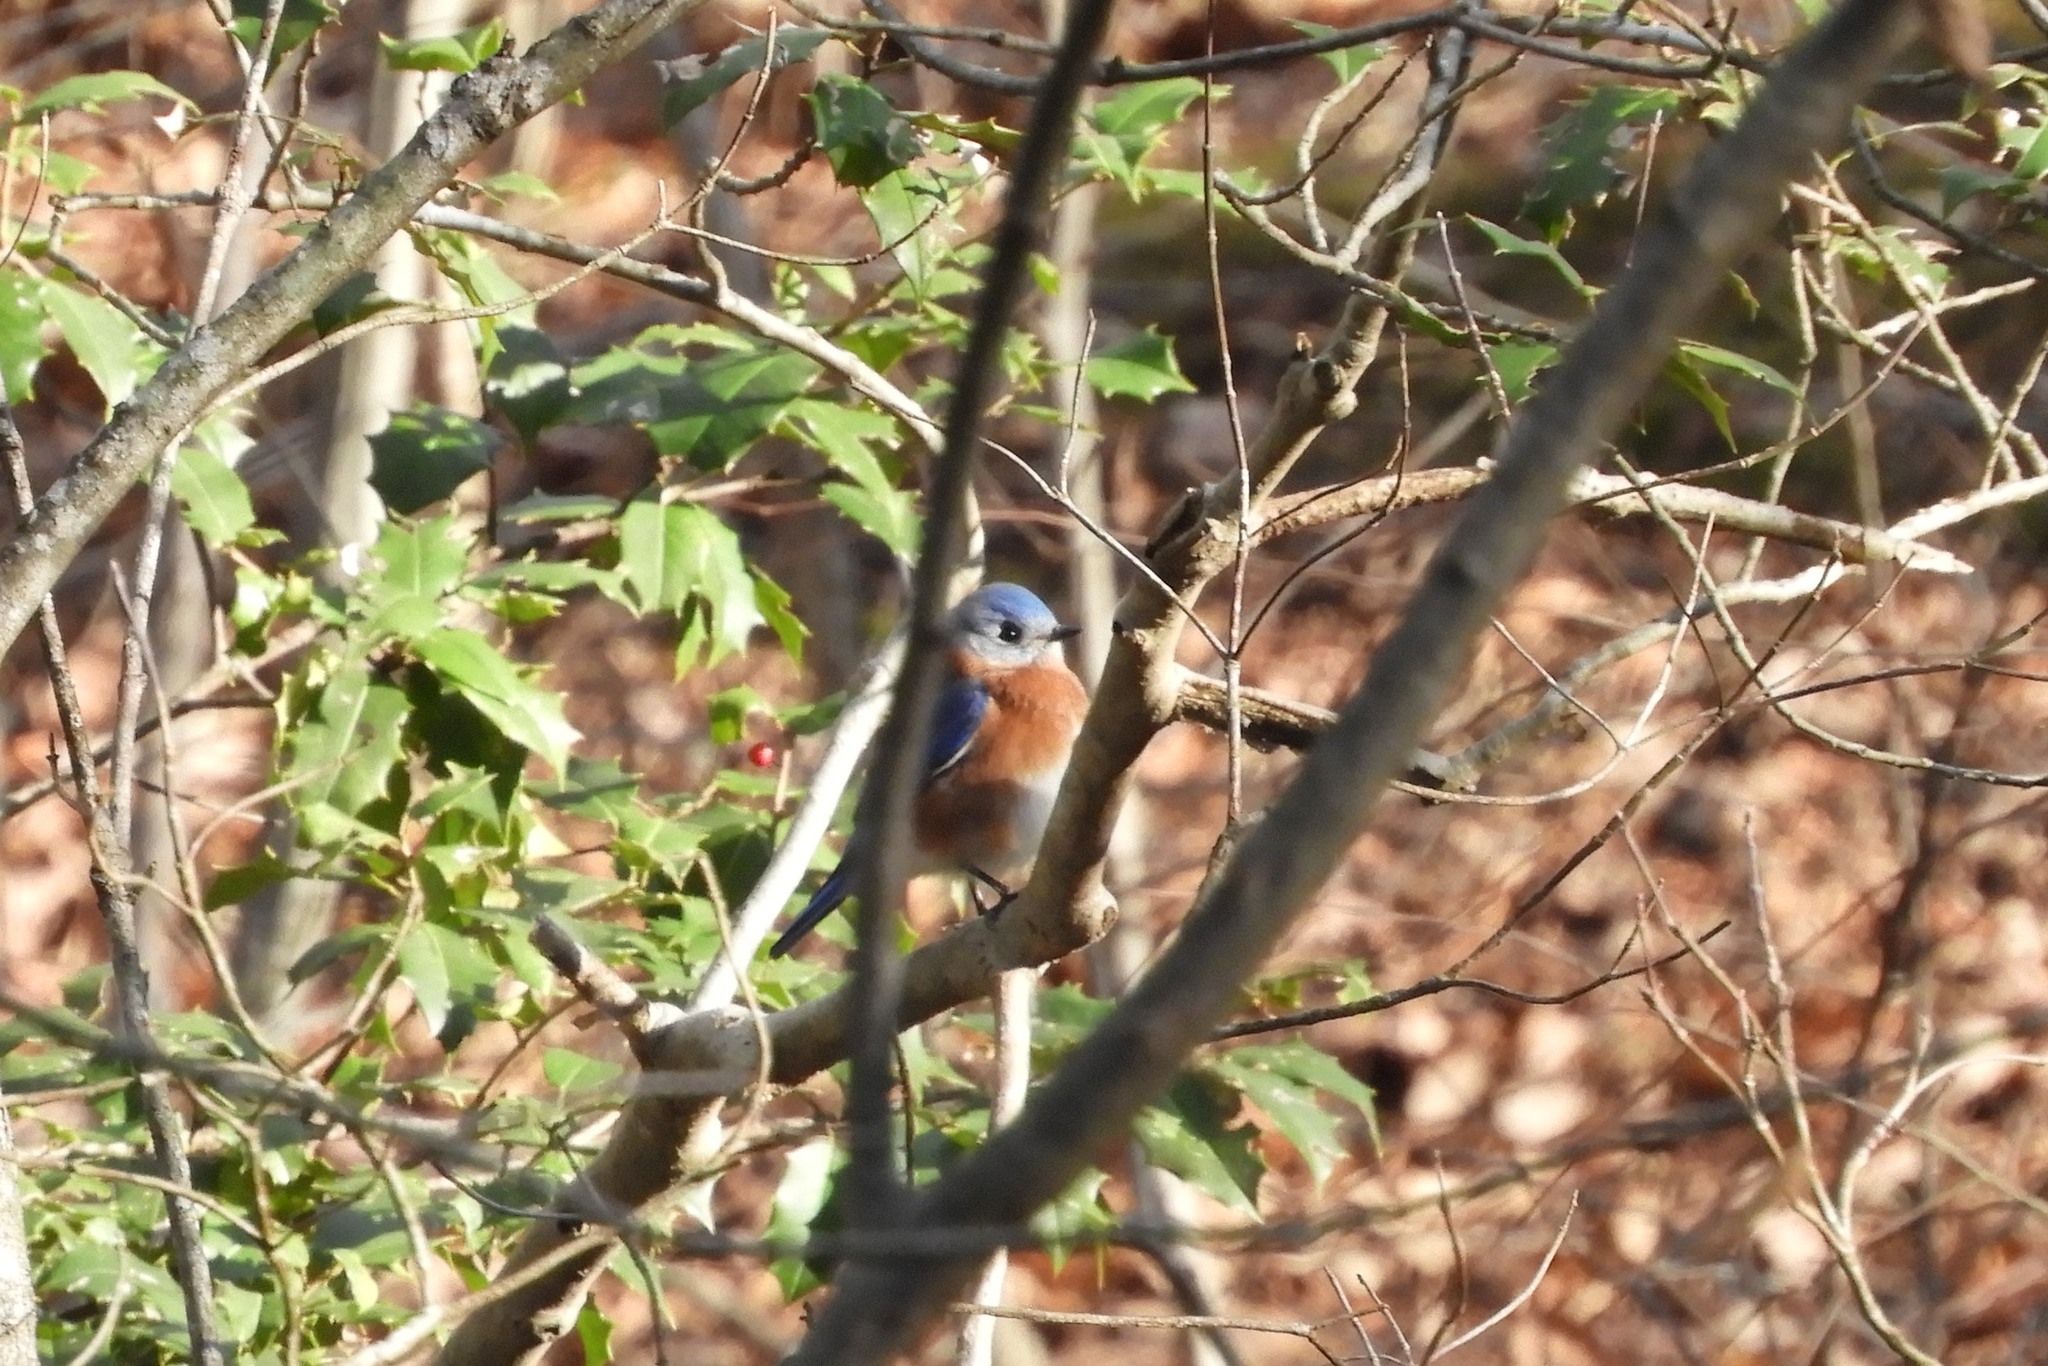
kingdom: Animalia
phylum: Chordata
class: Aves
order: Passeriformes
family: Turdidae
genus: Sialia
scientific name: Sialia sialis
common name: Eastern bluebird
